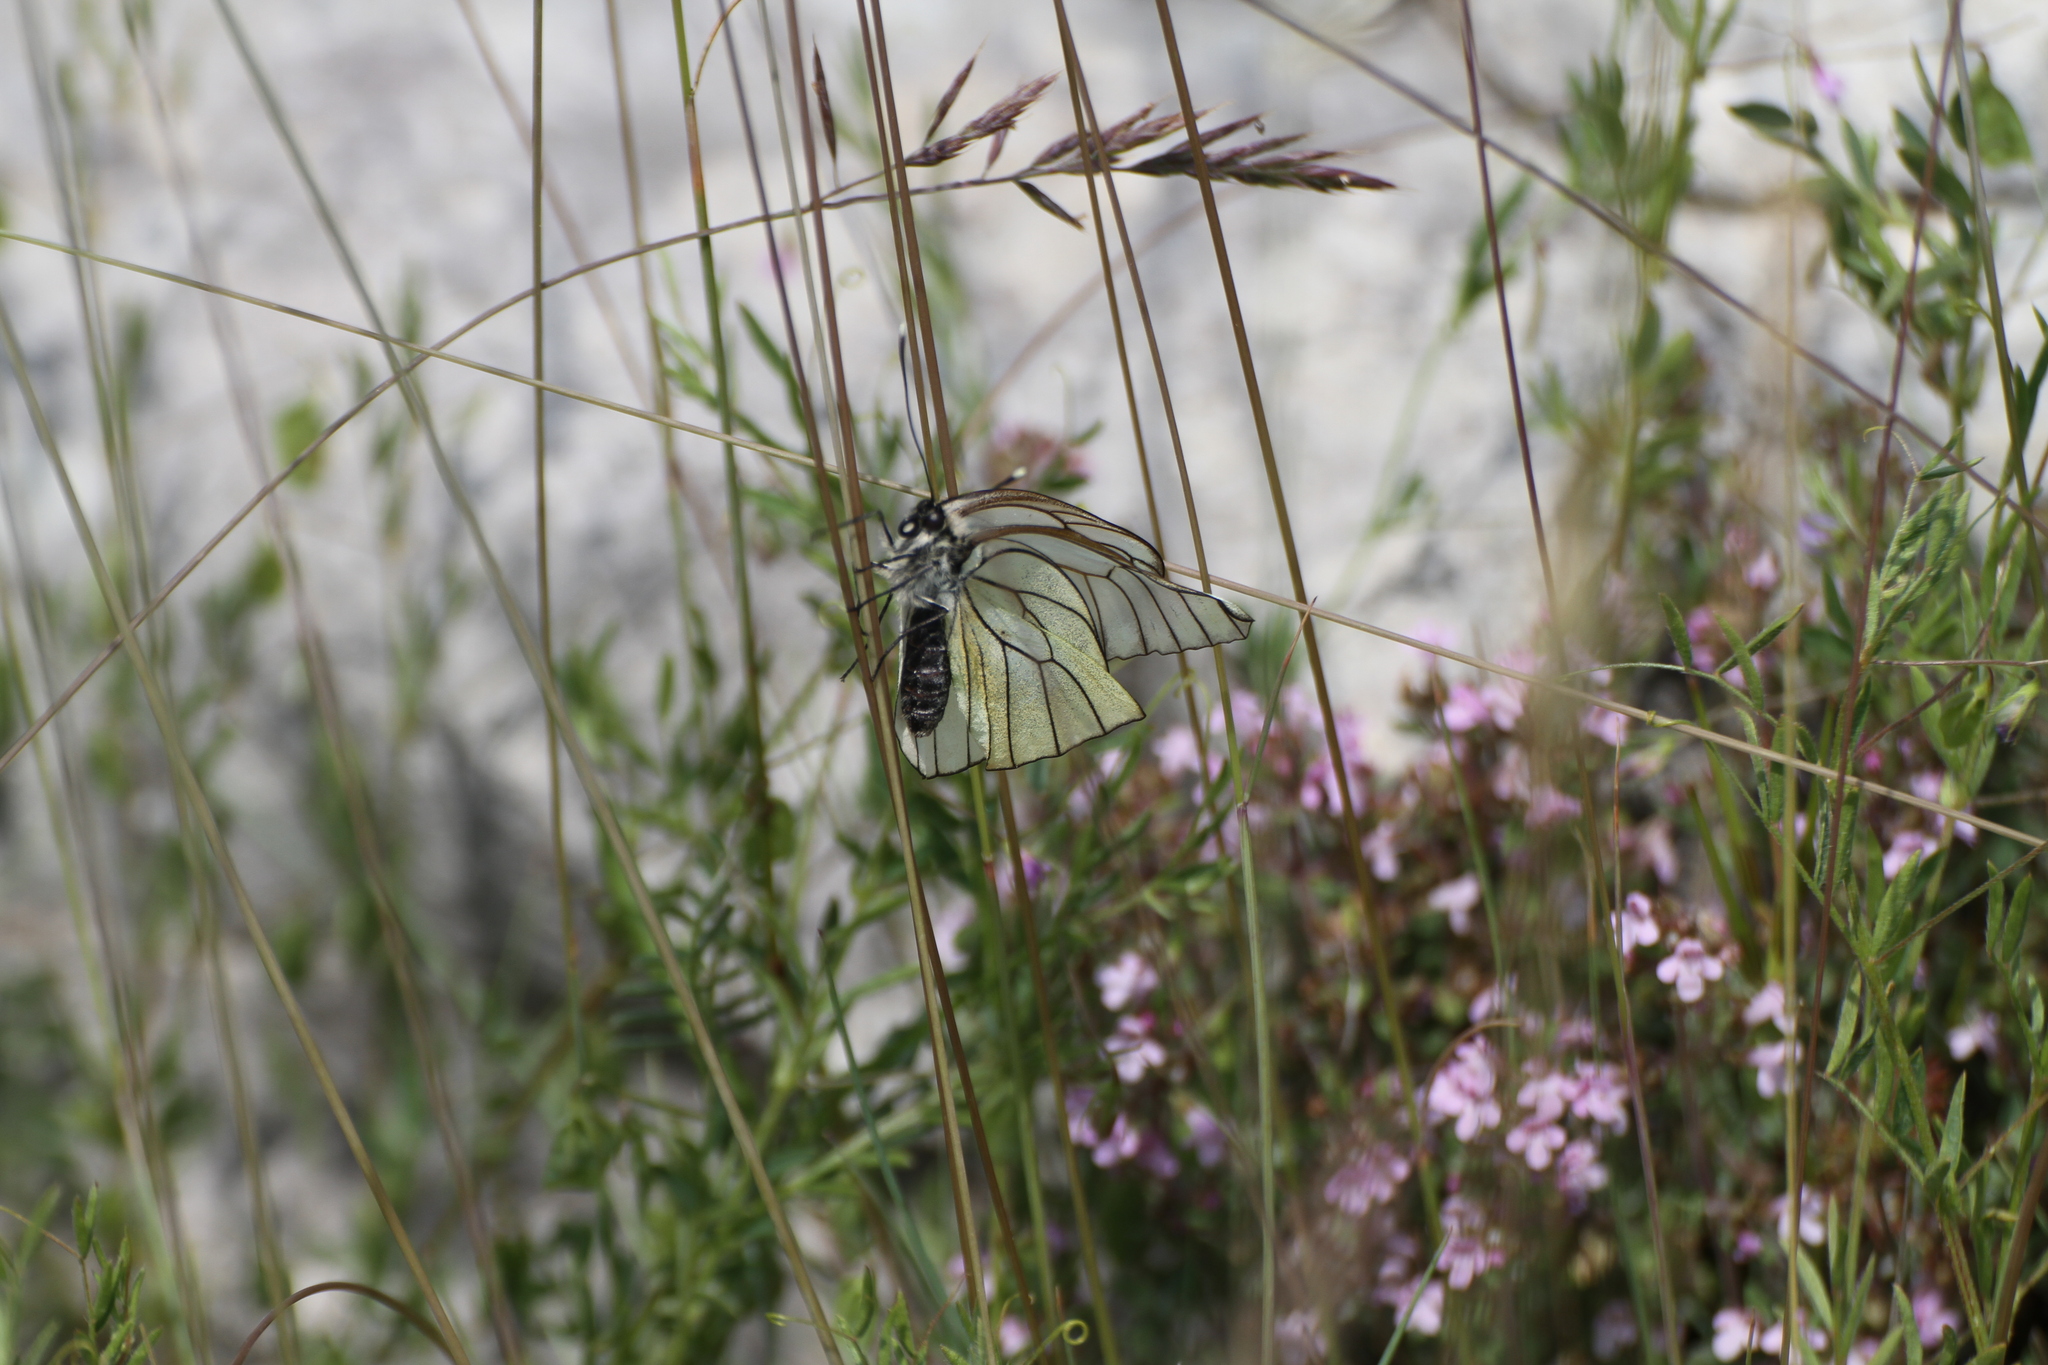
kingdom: Animalia
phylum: Arthropoda
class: Insecta
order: Lepidoptera
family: Pieridae
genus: Aporia
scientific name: Aporia crataegi
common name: Black-veined white
